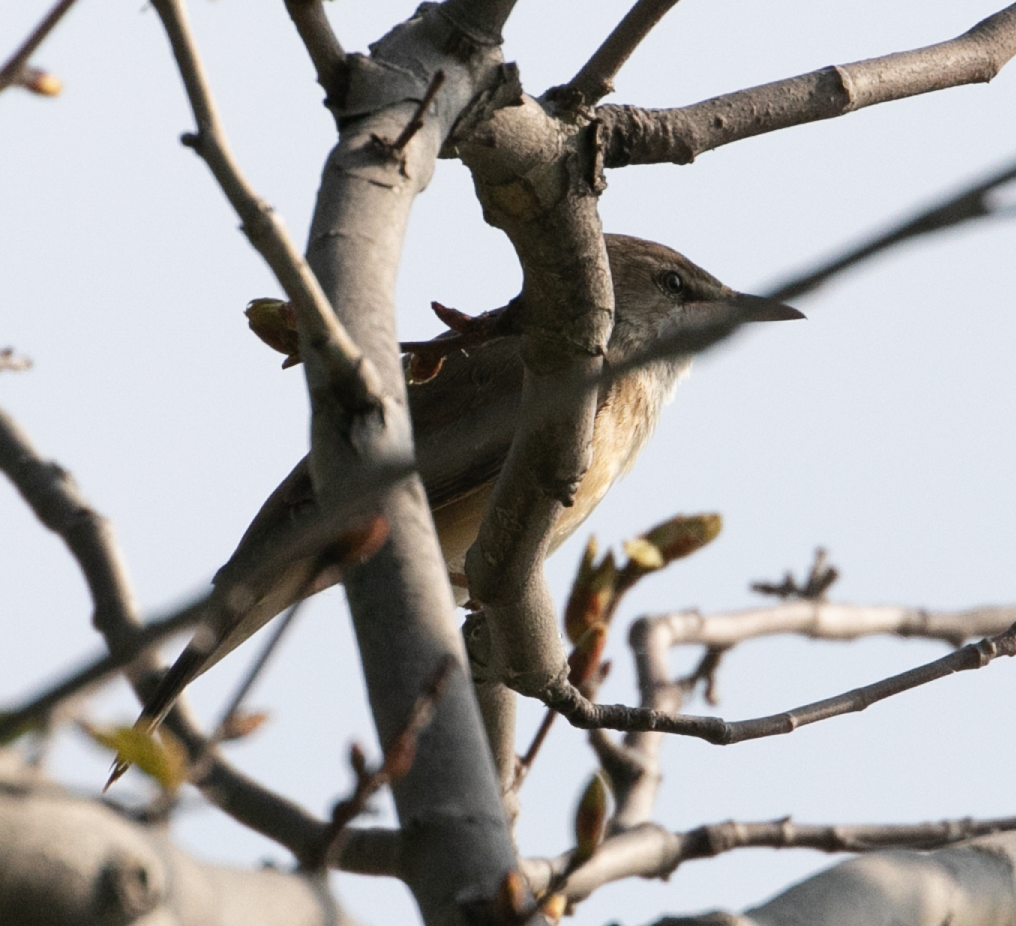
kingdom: Animalia
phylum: Chordata
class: Aves
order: Passeriformes
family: Acrocephalidae
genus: Acrocephalus
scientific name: Acrocephalus arundinaceus
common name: Great reed warbler
